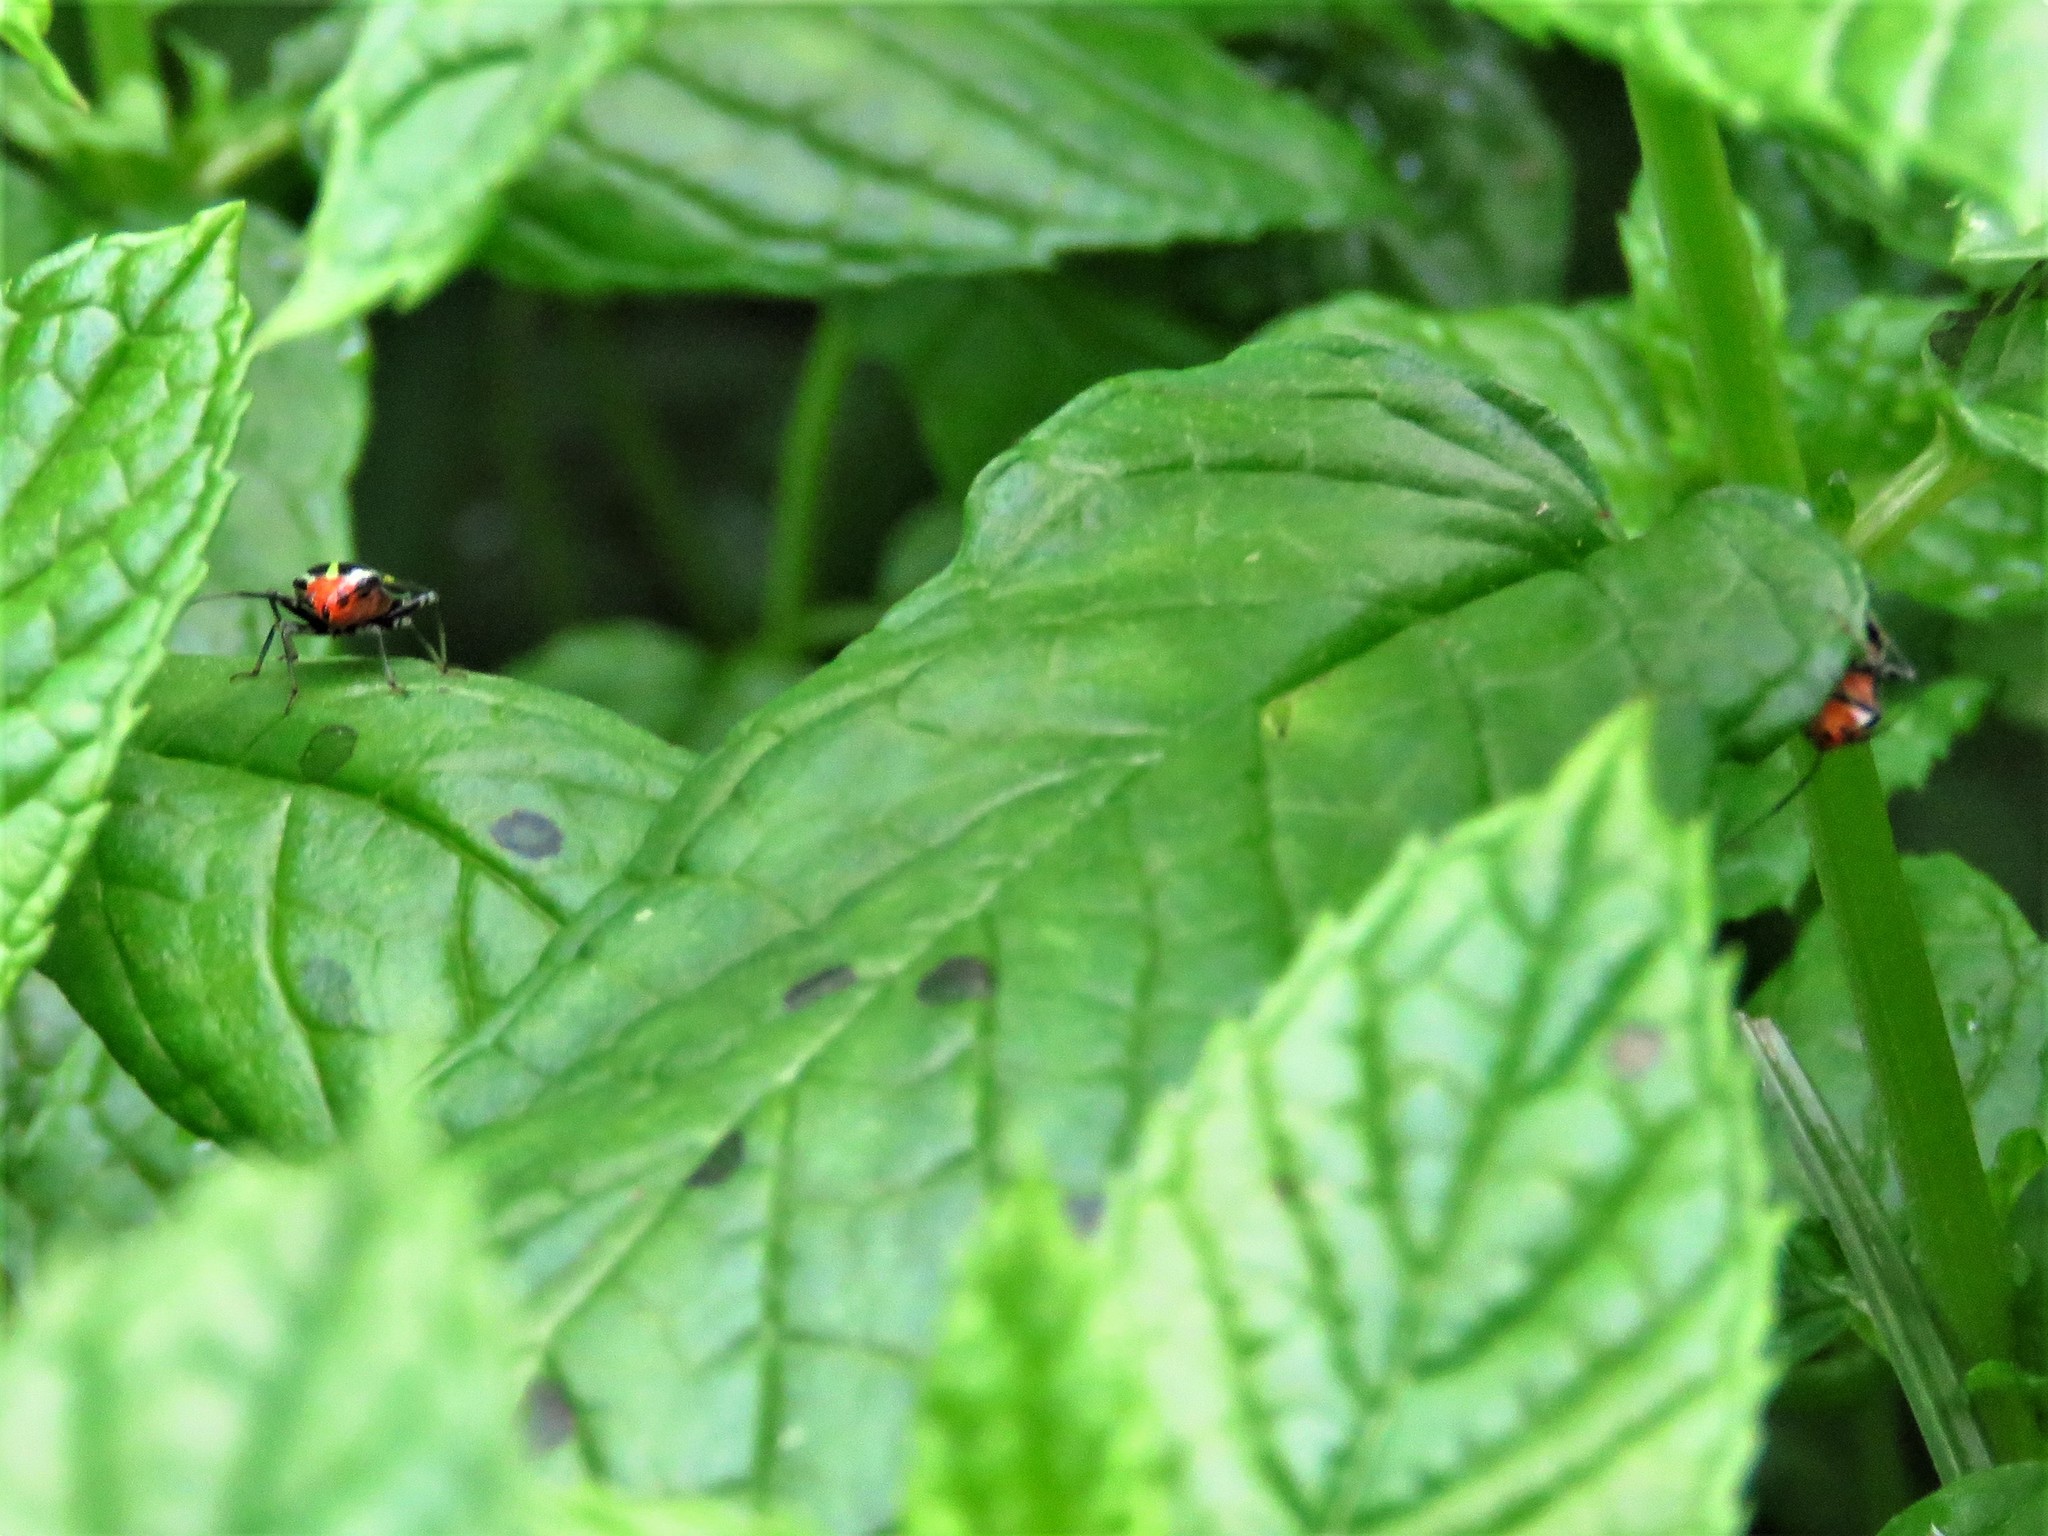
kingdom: Animalia
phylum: Arthropoda
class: Insecta
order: Hemiptera
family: Miridae
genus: Poecilocapsus
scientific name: Poecilocapsus lineatus
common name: Four-lined plant bug
